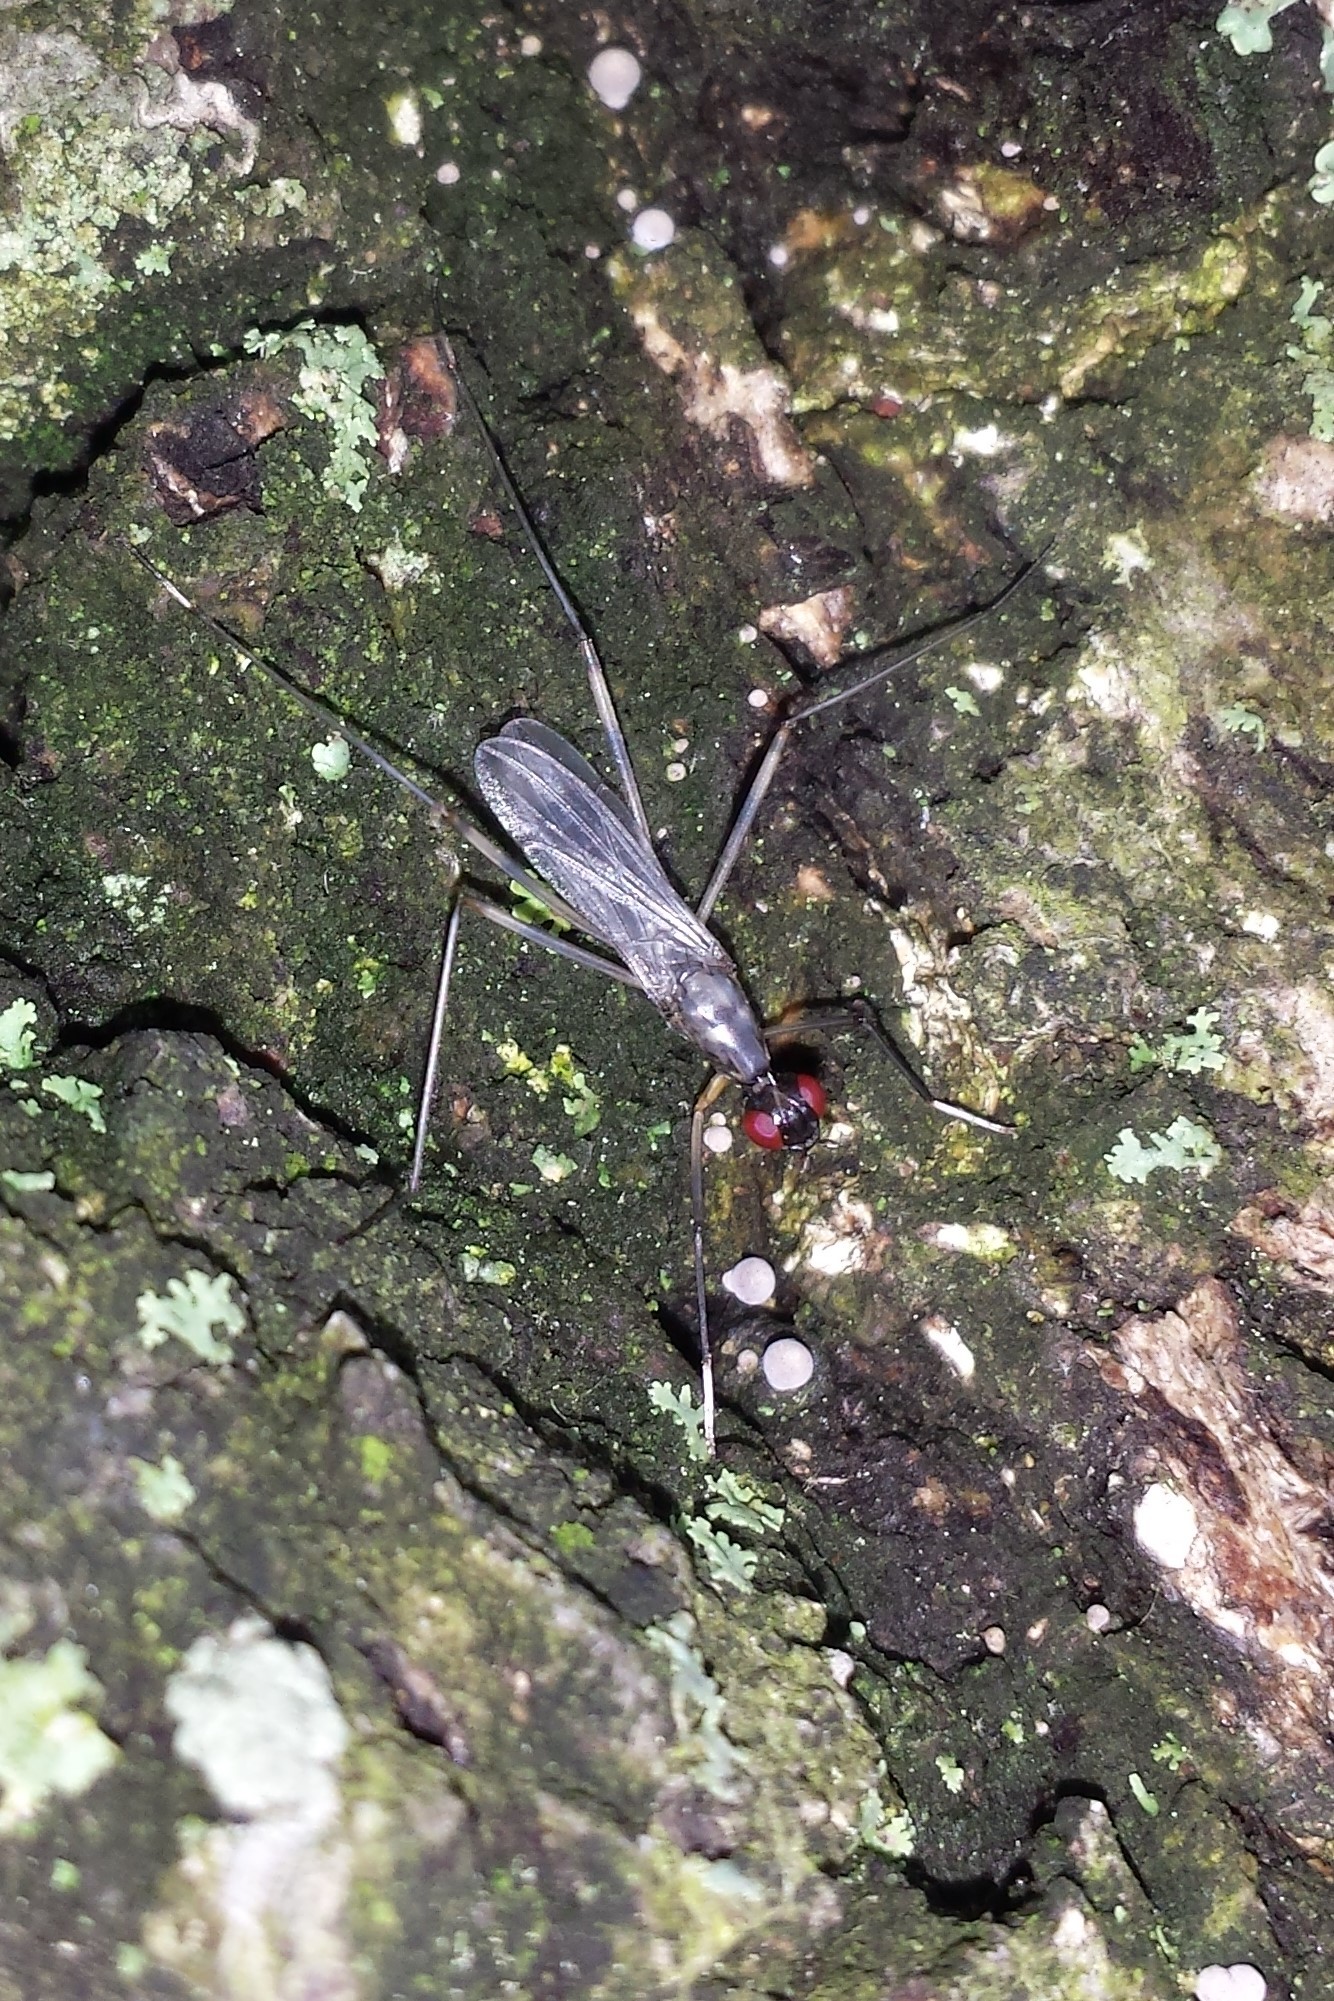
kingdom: Animalia
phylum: Arthropoda
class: Insecta
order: Diptera
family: Micropezidae
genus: Rainieria
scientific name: Rainieria antennaepes
